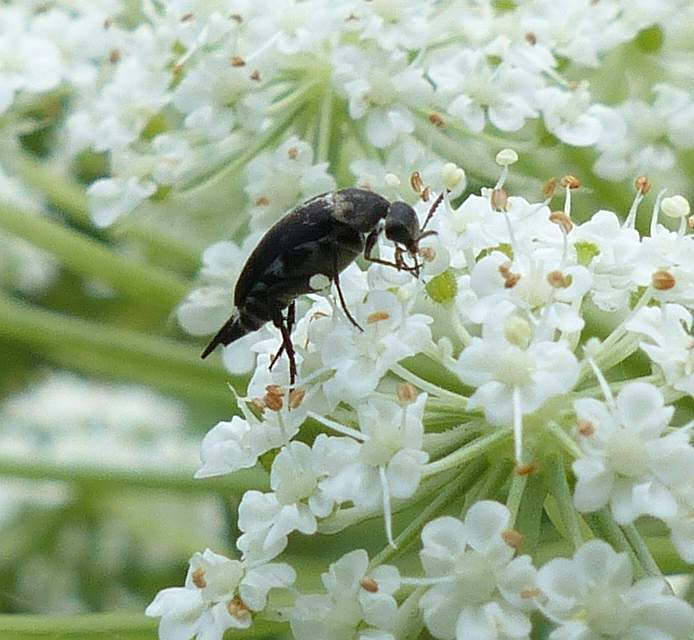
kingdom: Animalia
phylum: Arthropoda
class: Insecta
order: Coleoptera
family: Mordellidae
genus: Mordella
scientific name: Mordella marginata
